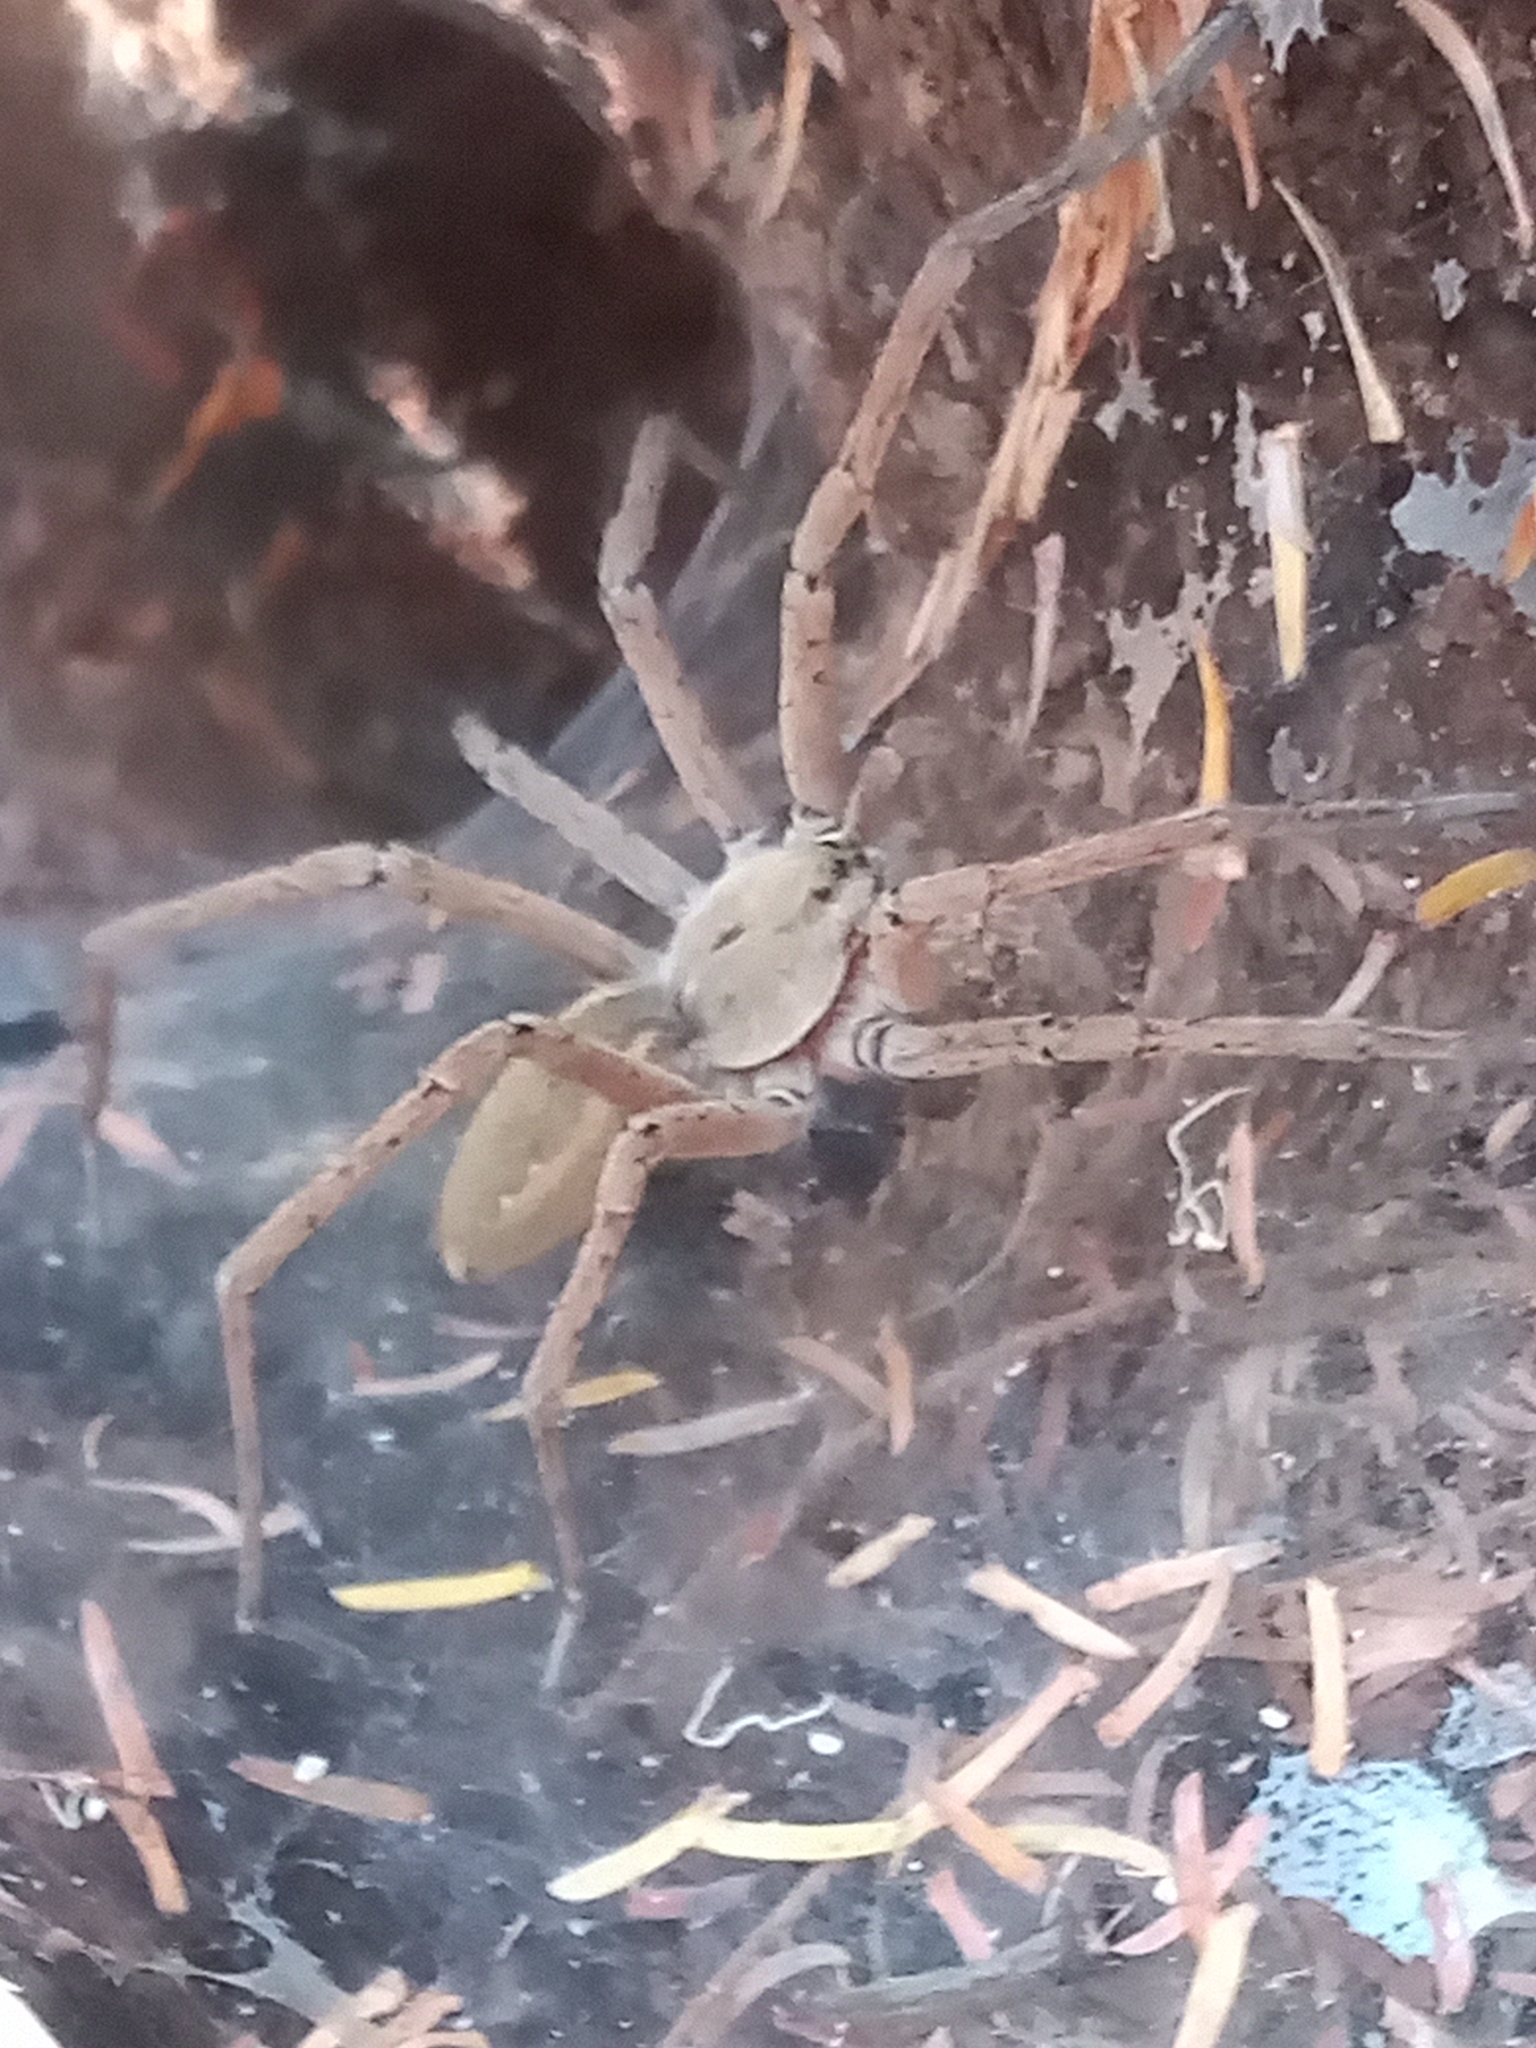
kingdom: Animalia
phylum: Arthropoda
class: Arachnida
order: Araneae
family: Lycosidae
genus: Aglaoctenus
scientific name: Aglaoctenus lagotis
